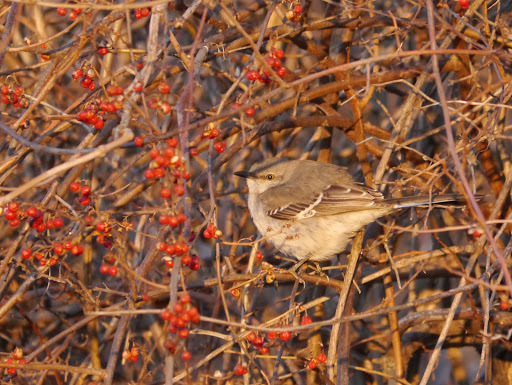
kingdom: Animalia
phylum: Chordata
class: Aves
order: Passeriformes
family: Mimidae
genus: Mimus
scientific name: Mimus polyglottos
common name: Northern mockingbird
